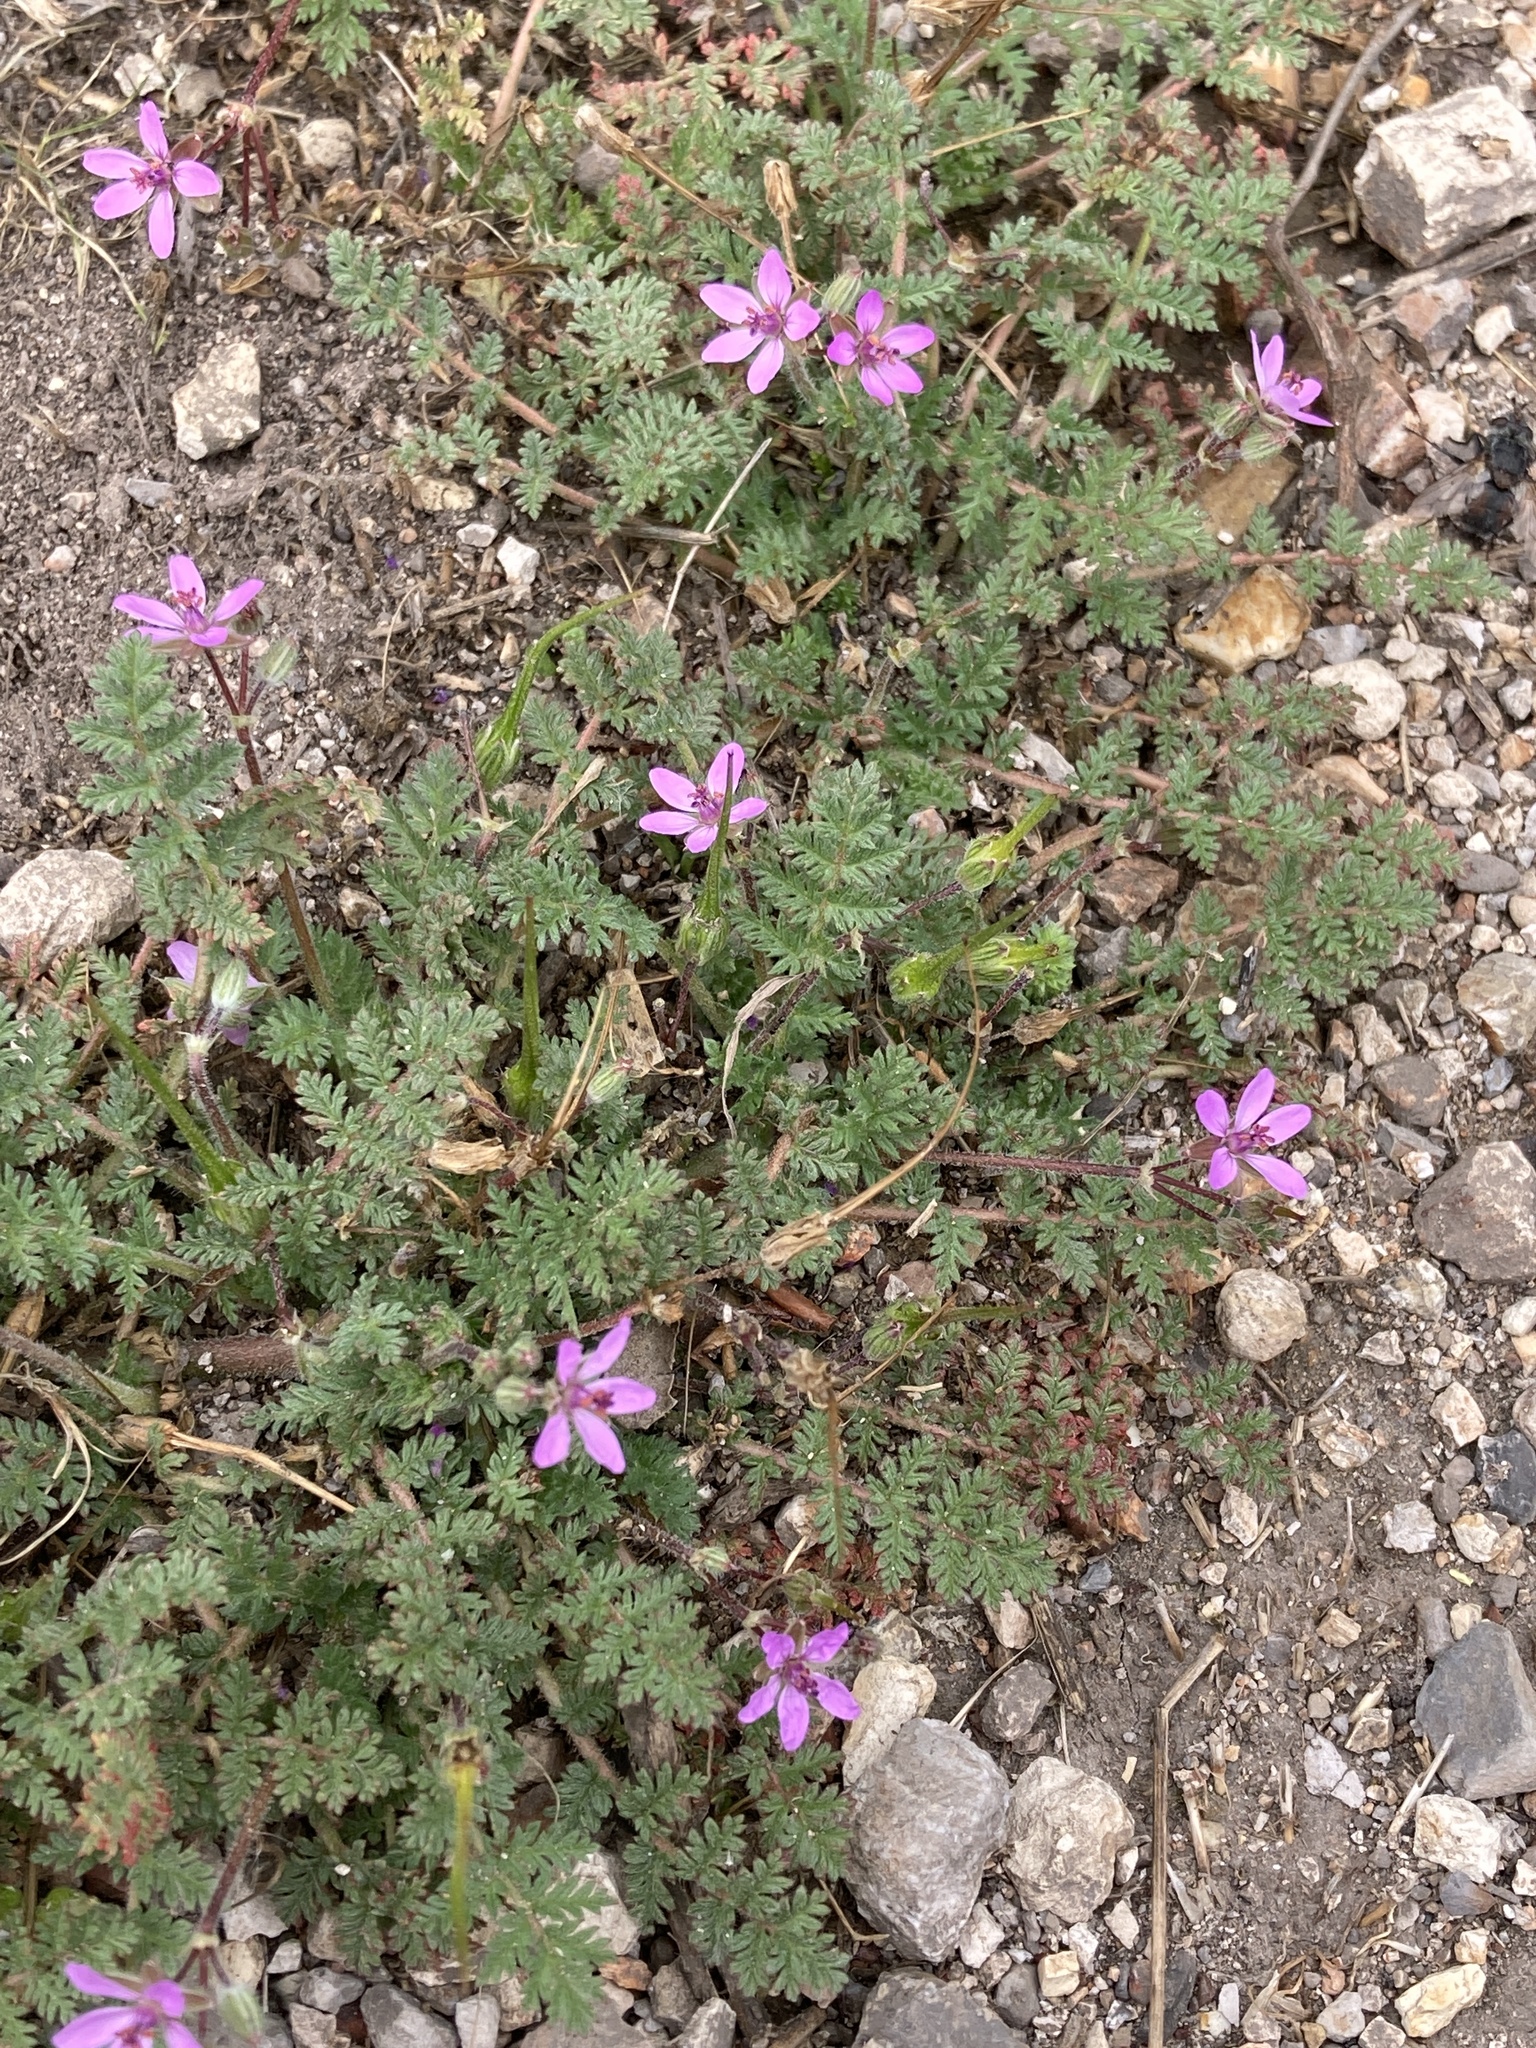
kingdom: Plantae
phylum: Tracheophyta
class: Magnoliopsida
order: Geraniales
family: Geraniaceae
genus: Erodium
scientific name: Erodium cicutarium
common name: Common stork's-bill
